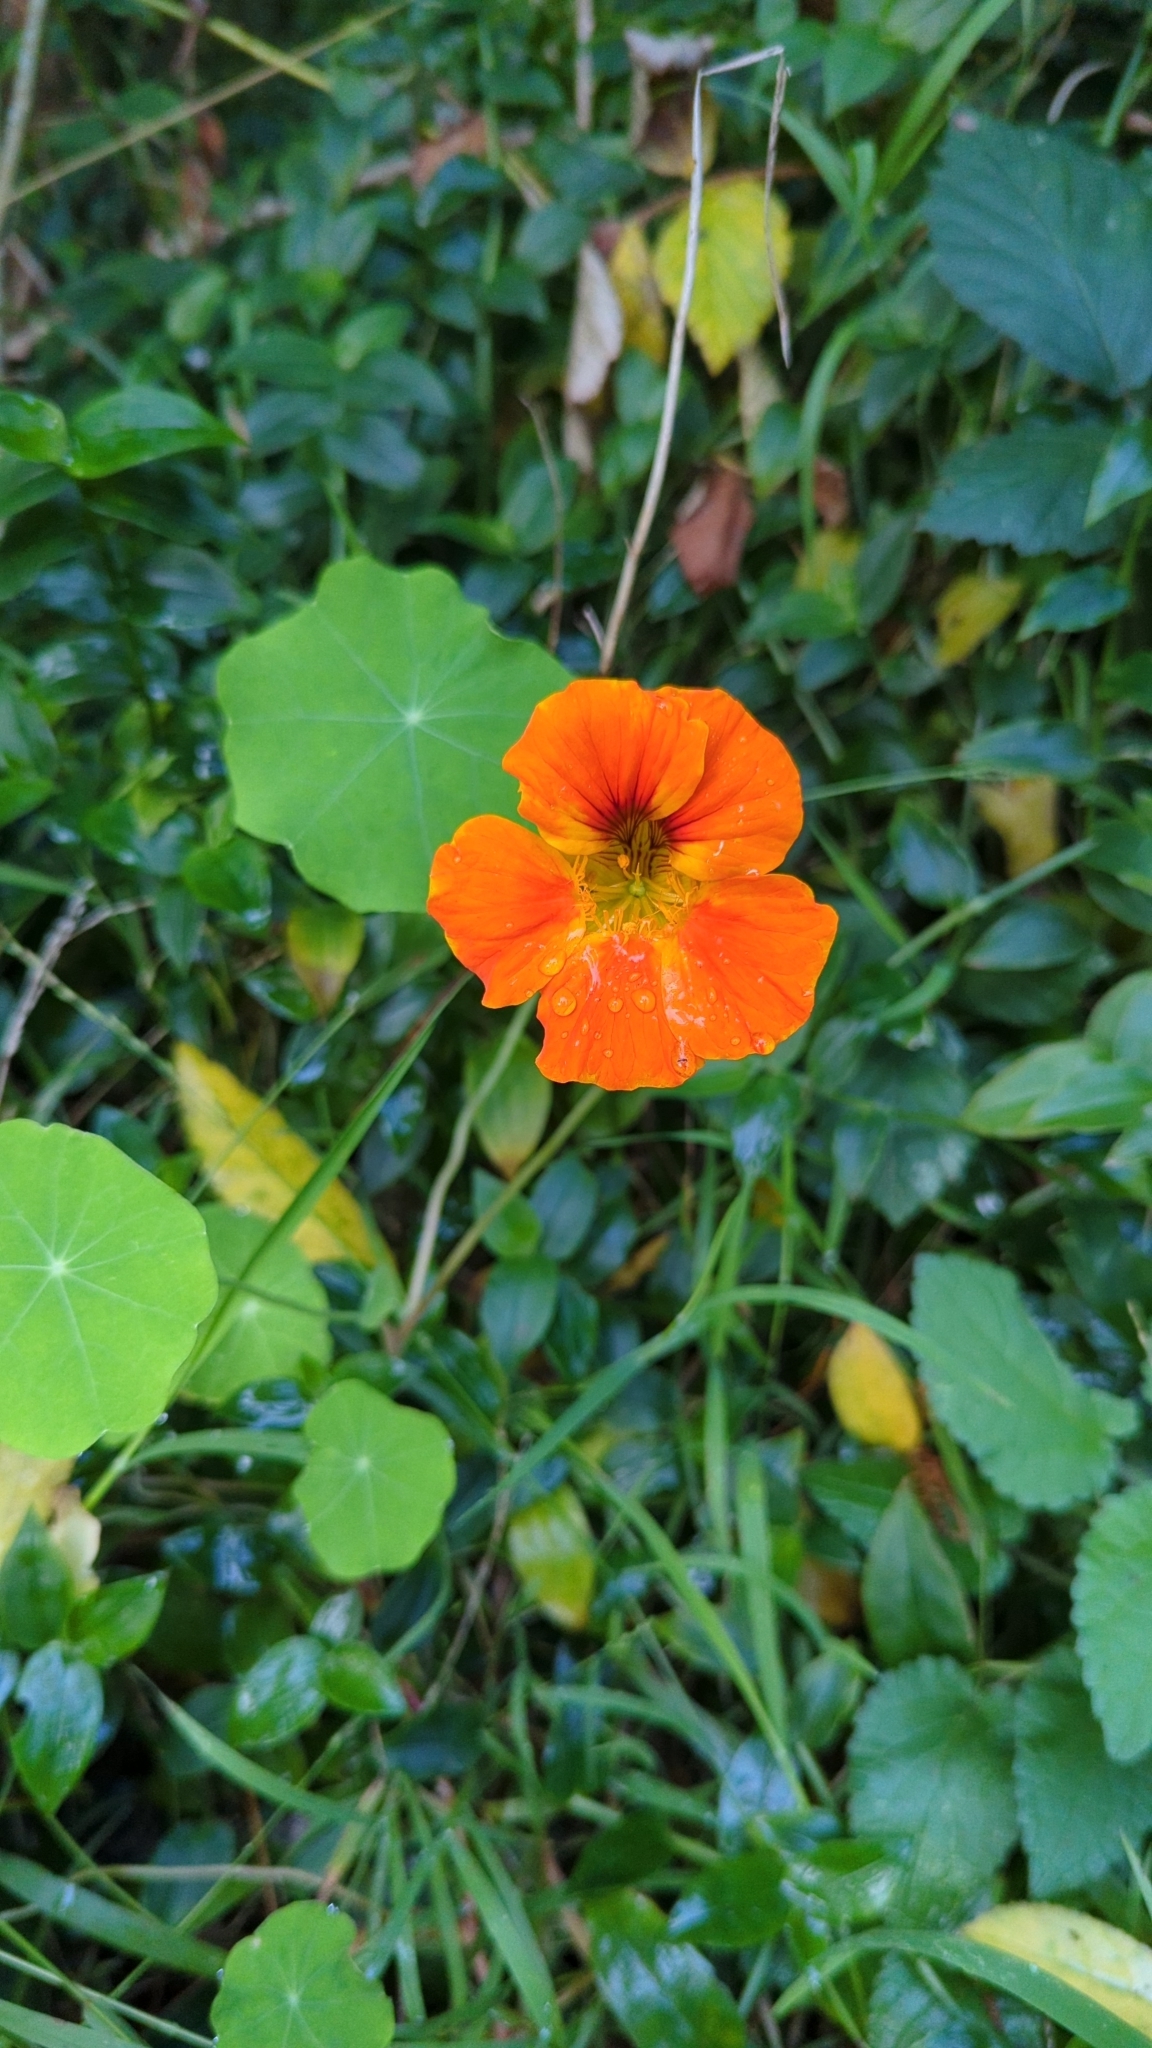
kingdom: Plantae
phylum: Tracheophyta
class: Magnoliopsida
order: Brassicales
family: Tropaeolaceae
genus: Tropaeolum
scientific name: Tropaeolum majus
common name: Nasturtium
